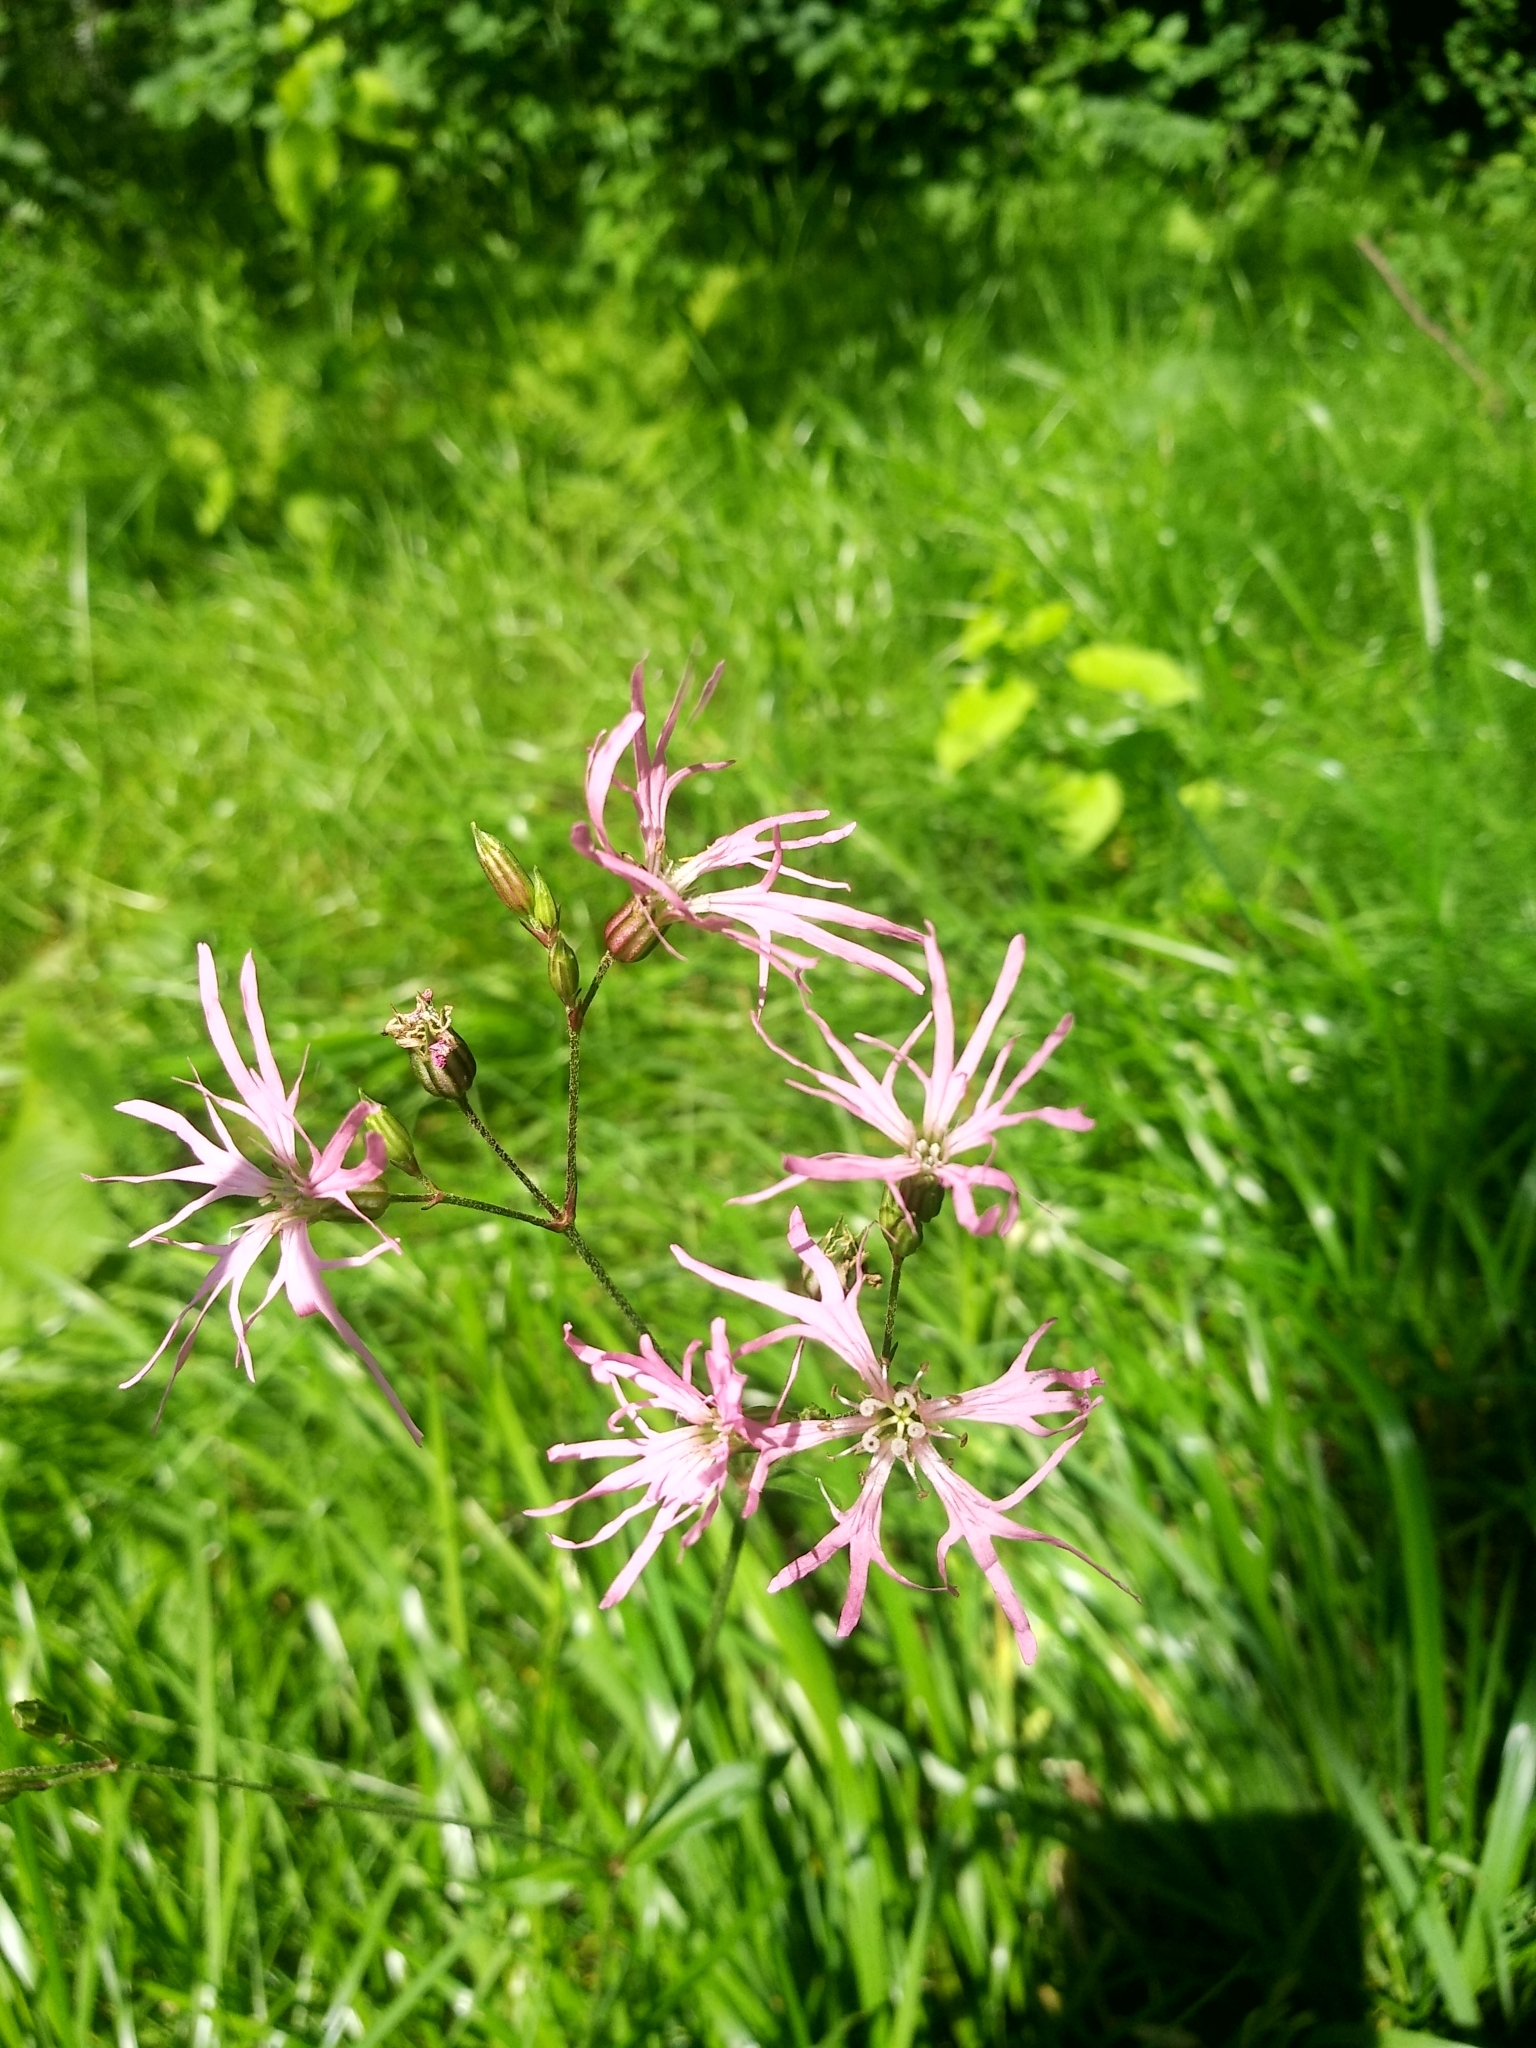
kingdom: Plantae
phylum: Tracheophyta
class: Magnoliopsida
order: Caryophyllales
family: Caryophyllaceae
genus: Silene
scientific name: Silene flos-cuculi
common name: Ragged-robin
